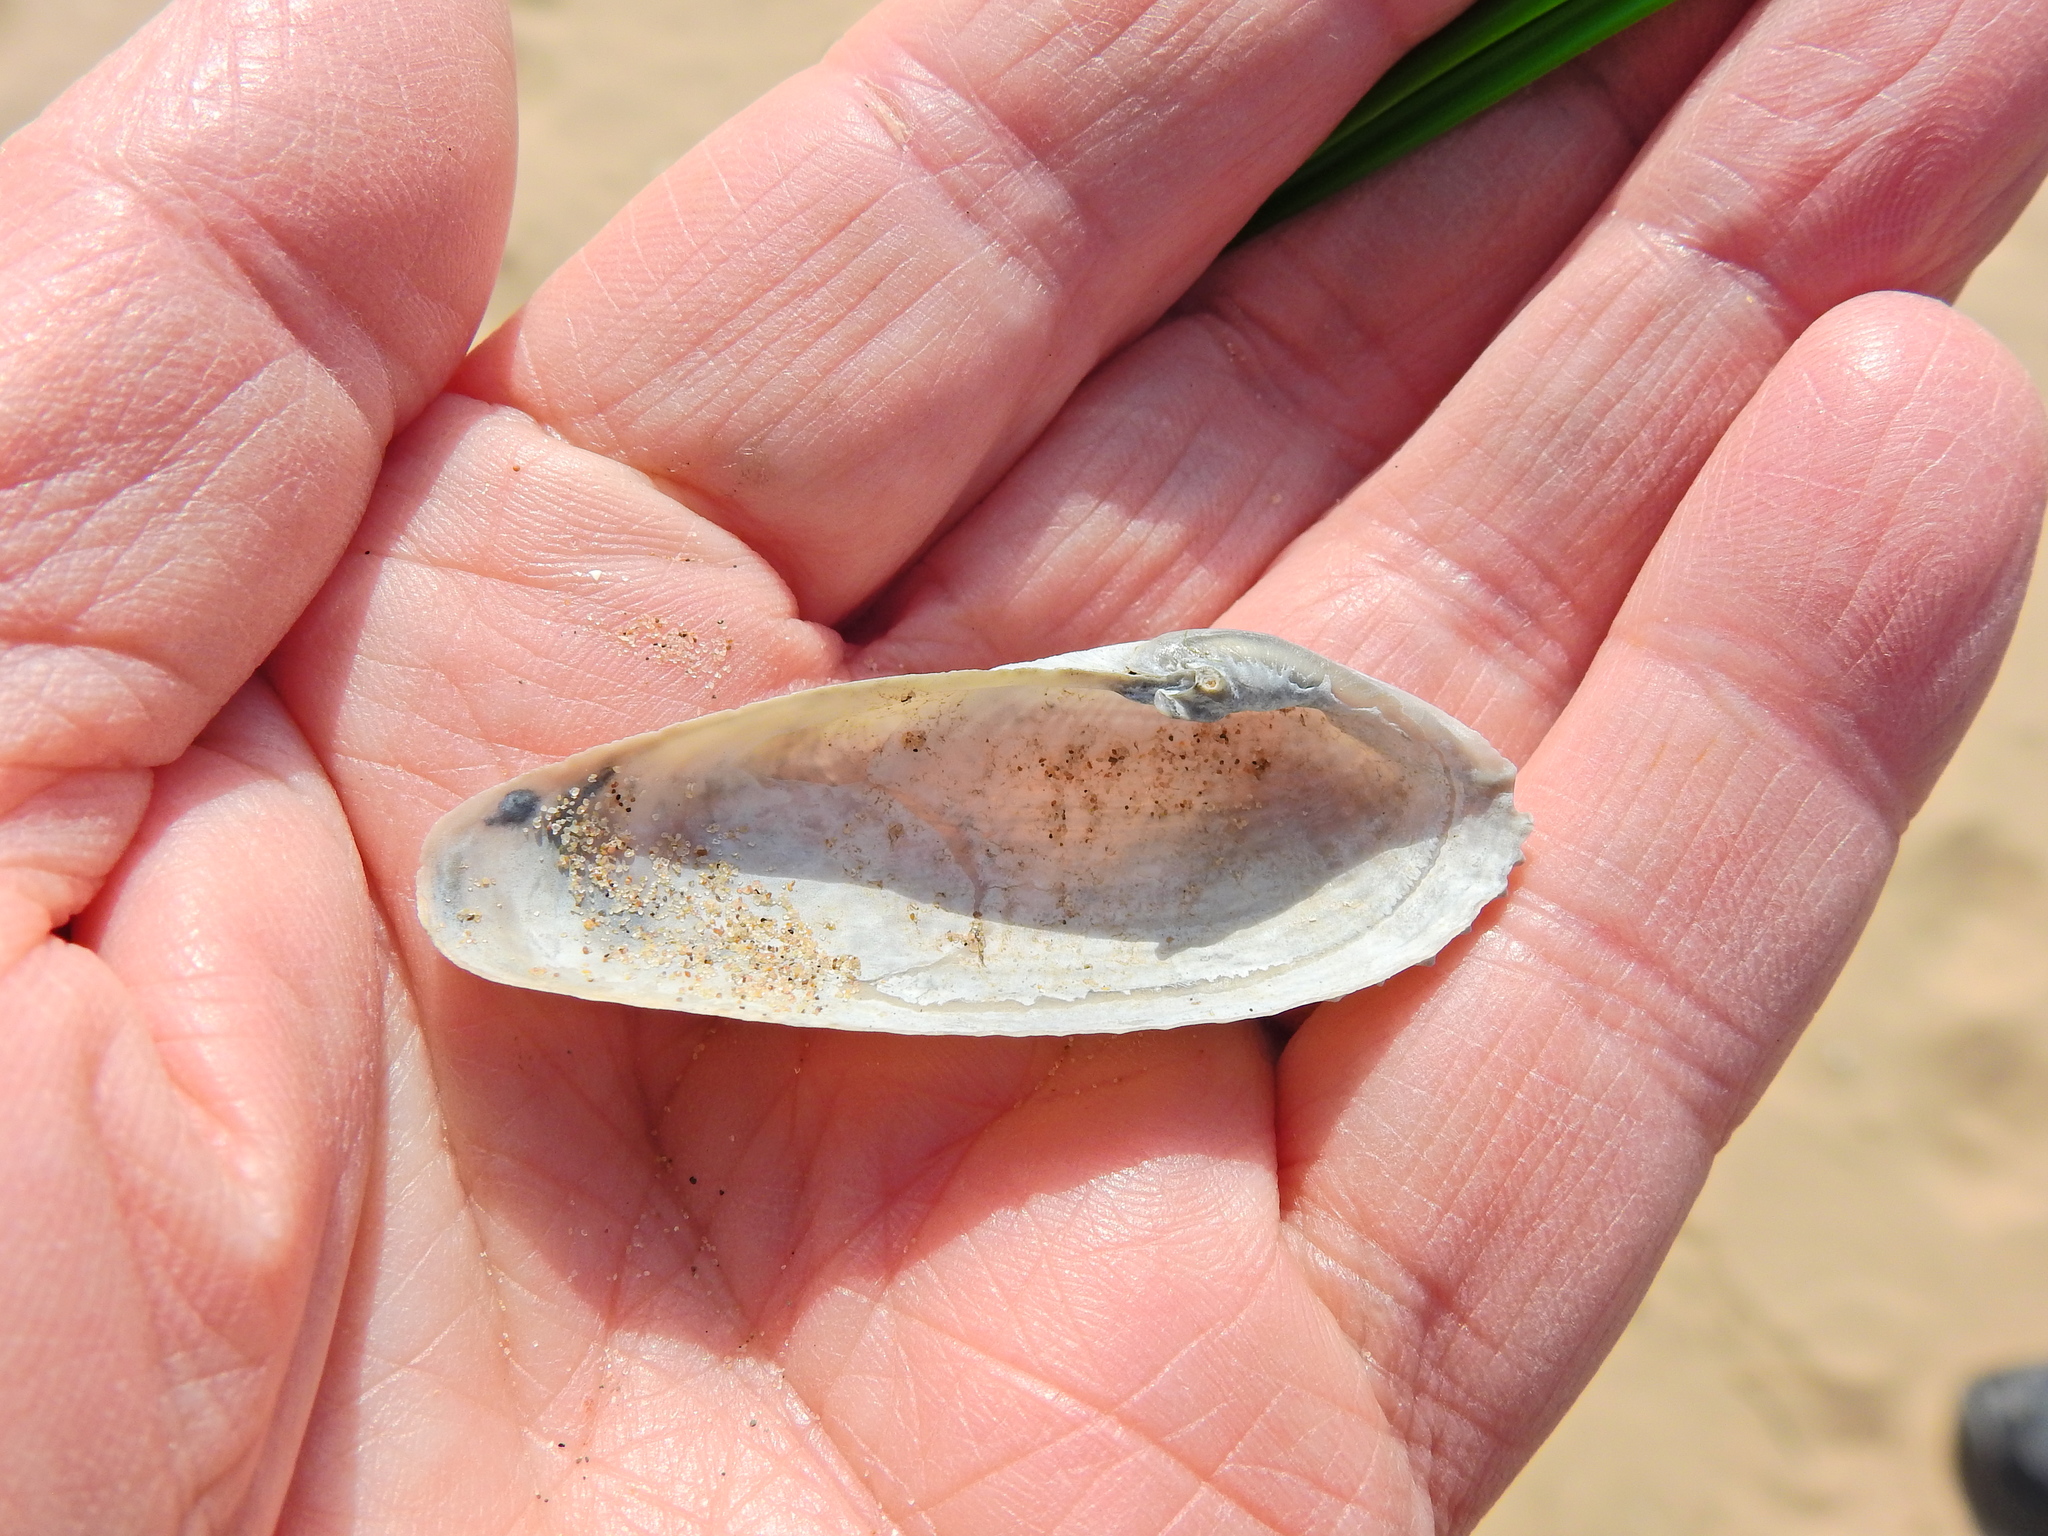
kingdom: Animalia
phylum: Mollusca
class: Bivalvia
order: Myida
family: Pholadidae
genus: Barnea
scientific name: Barnea candida
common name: White piddock
